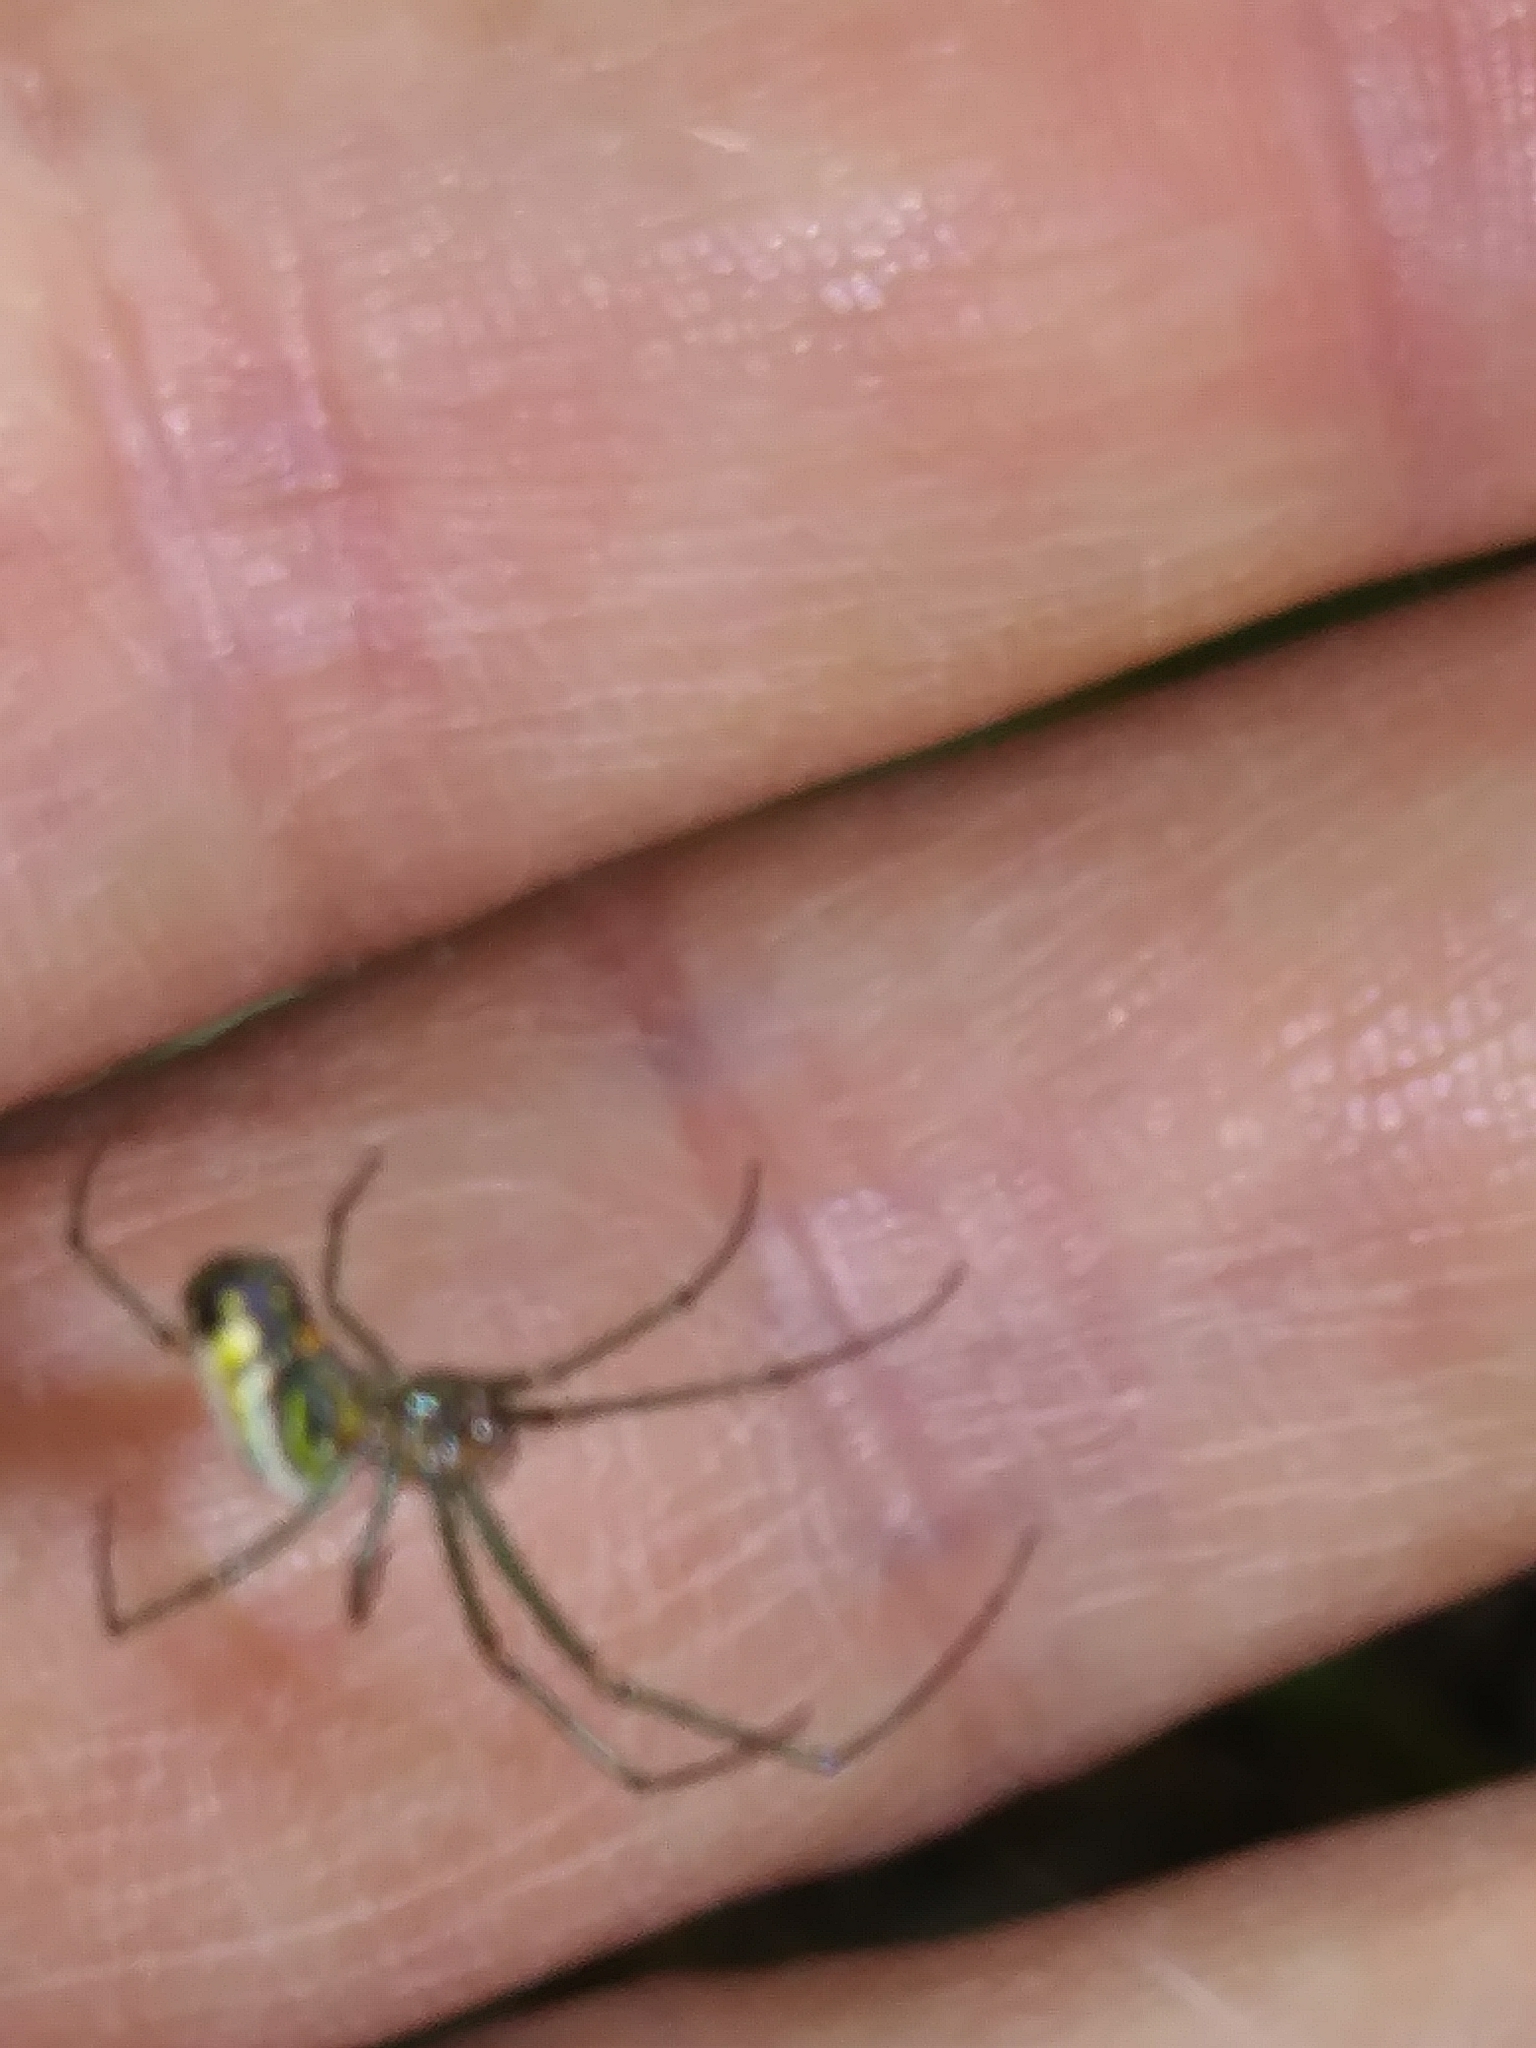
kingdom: Animalia
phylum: Arthropoda
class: Arachnida
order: Araneae
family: Tetragnathidae
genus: Leucauge
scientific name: Leucauge venusta
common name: Longjawed orb weavers
